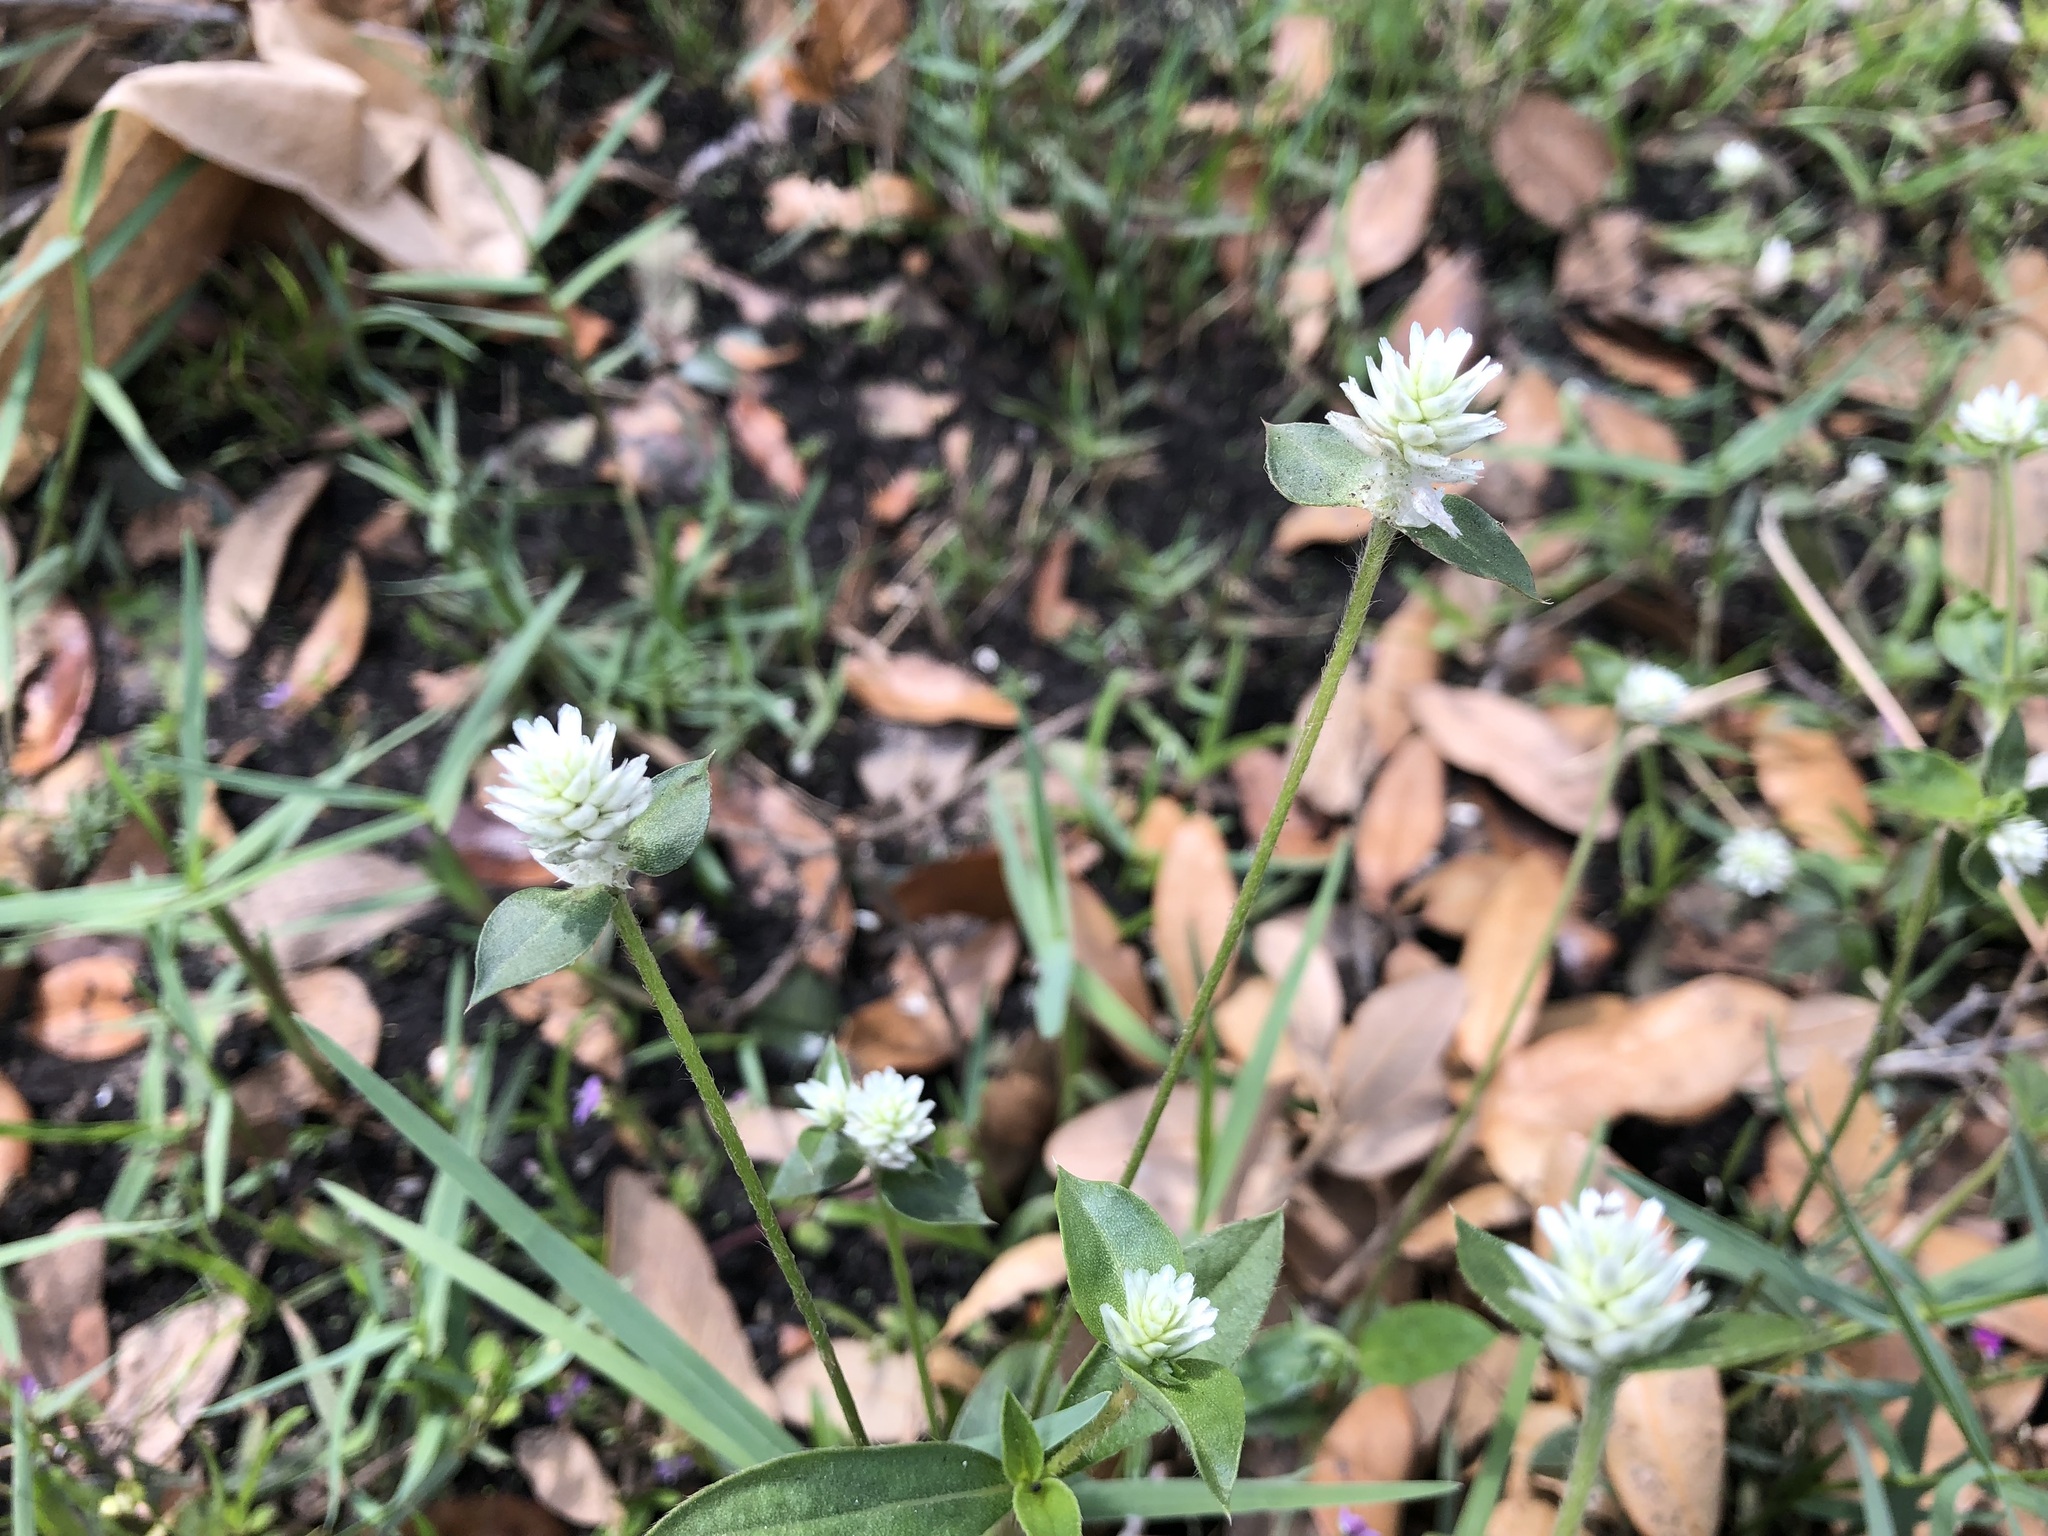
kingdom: Plantae
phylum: Tracheophyta
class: Magnoliopsida
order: Caryophyllales
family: Amaranthaceae
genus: Gomphrena
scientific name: Gomphrena serrata
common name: Arrasa con todo
